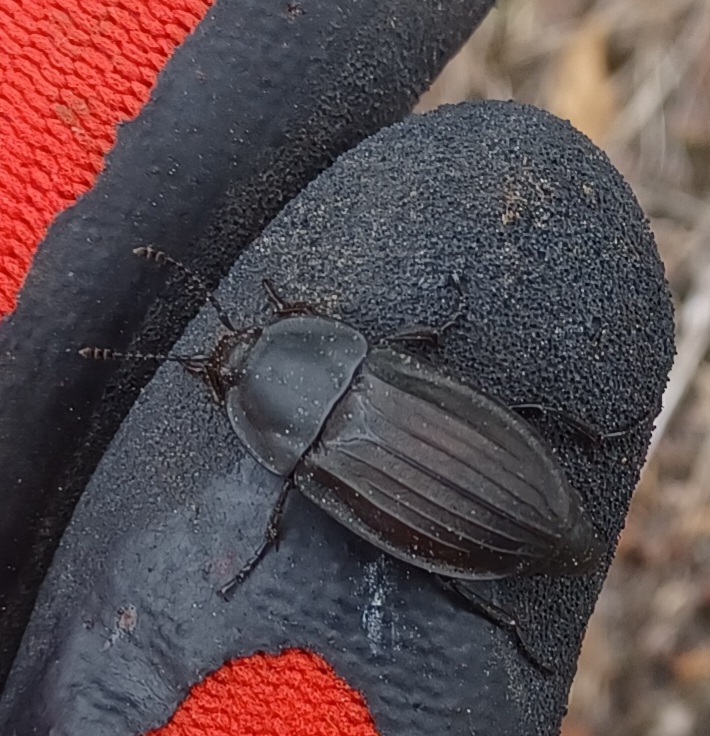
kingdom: Animalia
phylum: Arthropoda
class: Insecta
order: Coleoptera
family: Staphylinidae
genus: Silpha
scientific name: Silpha carinata
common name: Silphid beetle
